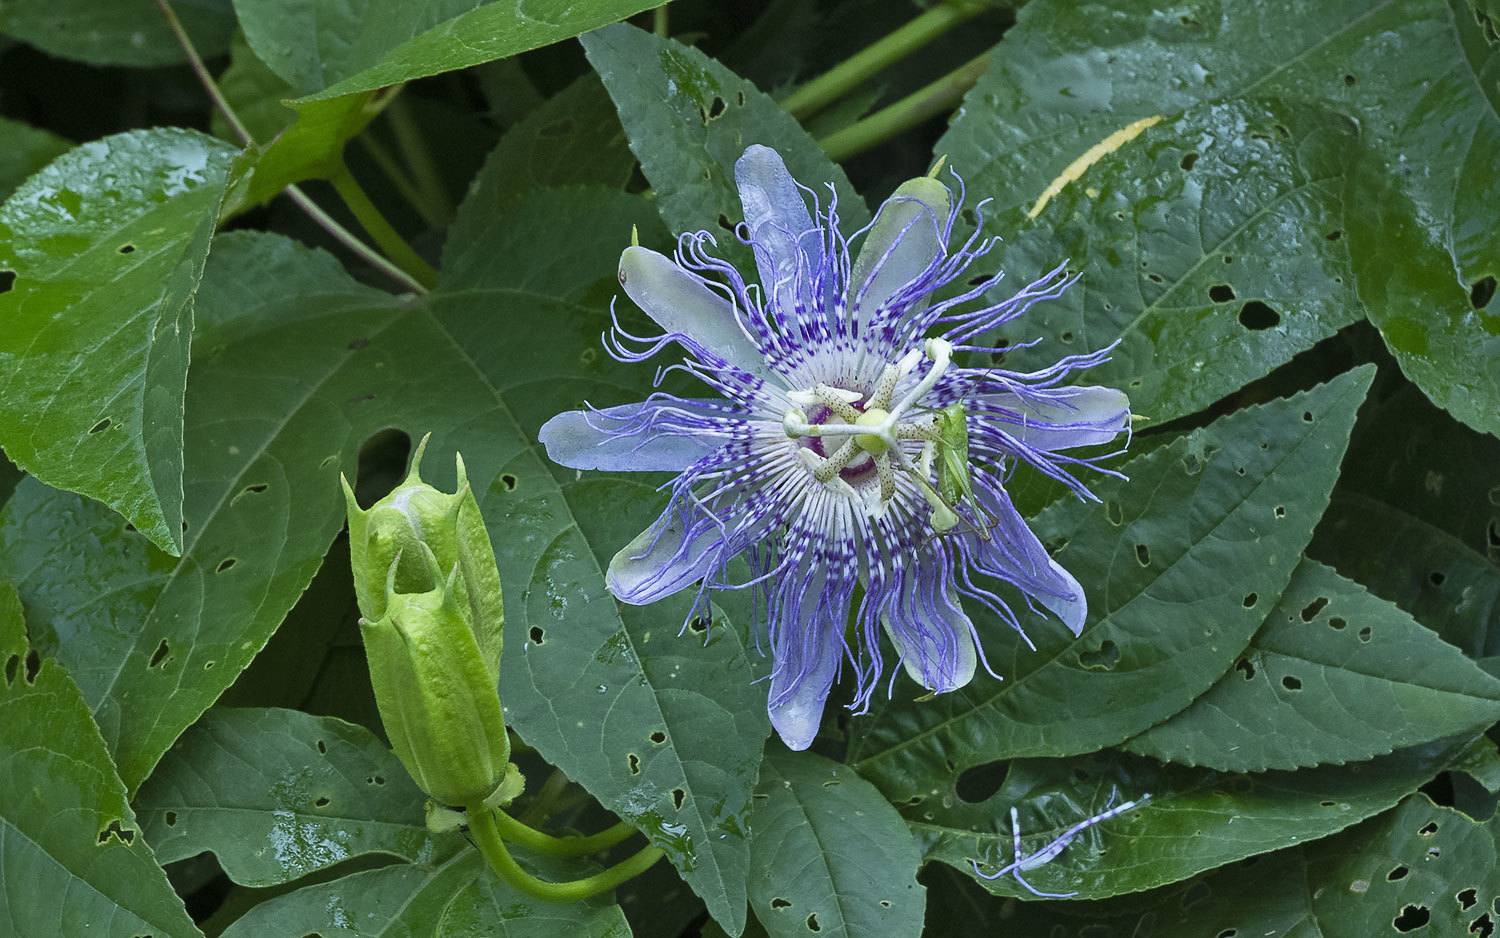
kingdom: Plantae
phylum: Tracheophyta
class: Magnoliopsida
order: Malpighiales
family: Passifloraceae
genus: Passiflora
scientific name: Passiflora incarnata
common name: Apricot-vine
